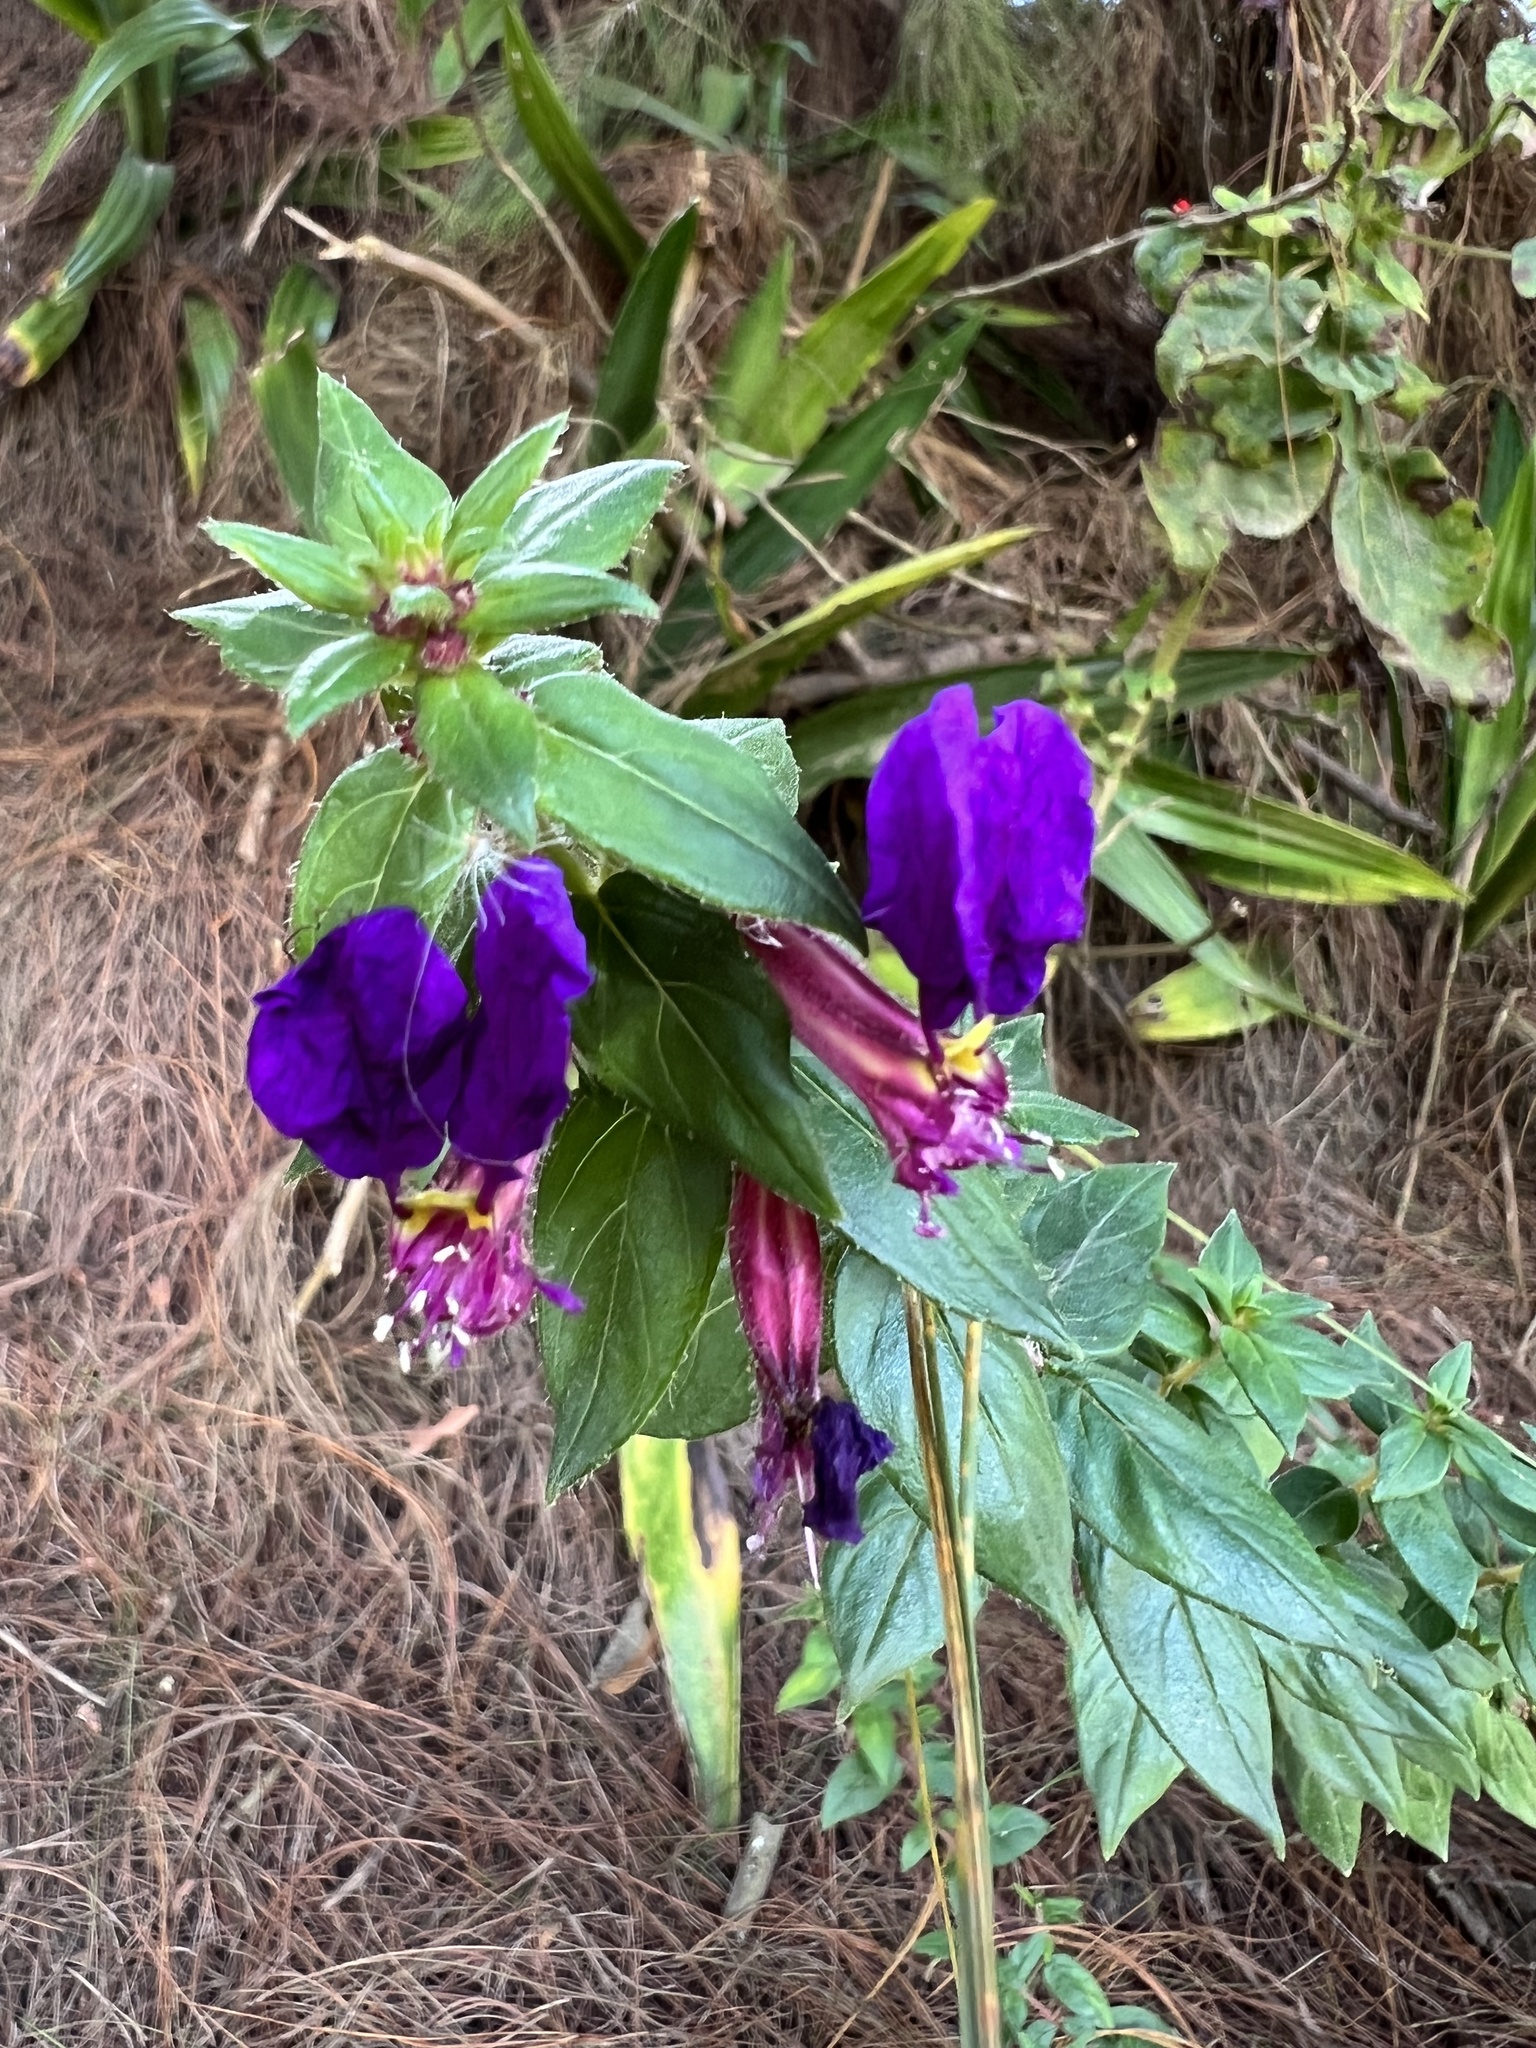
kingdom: Plantae
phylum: Tracheophyta
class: Magnoliopsida
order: Myrtales
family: Lythraceae
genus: Cuphea
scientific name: Cuphea dipetala
